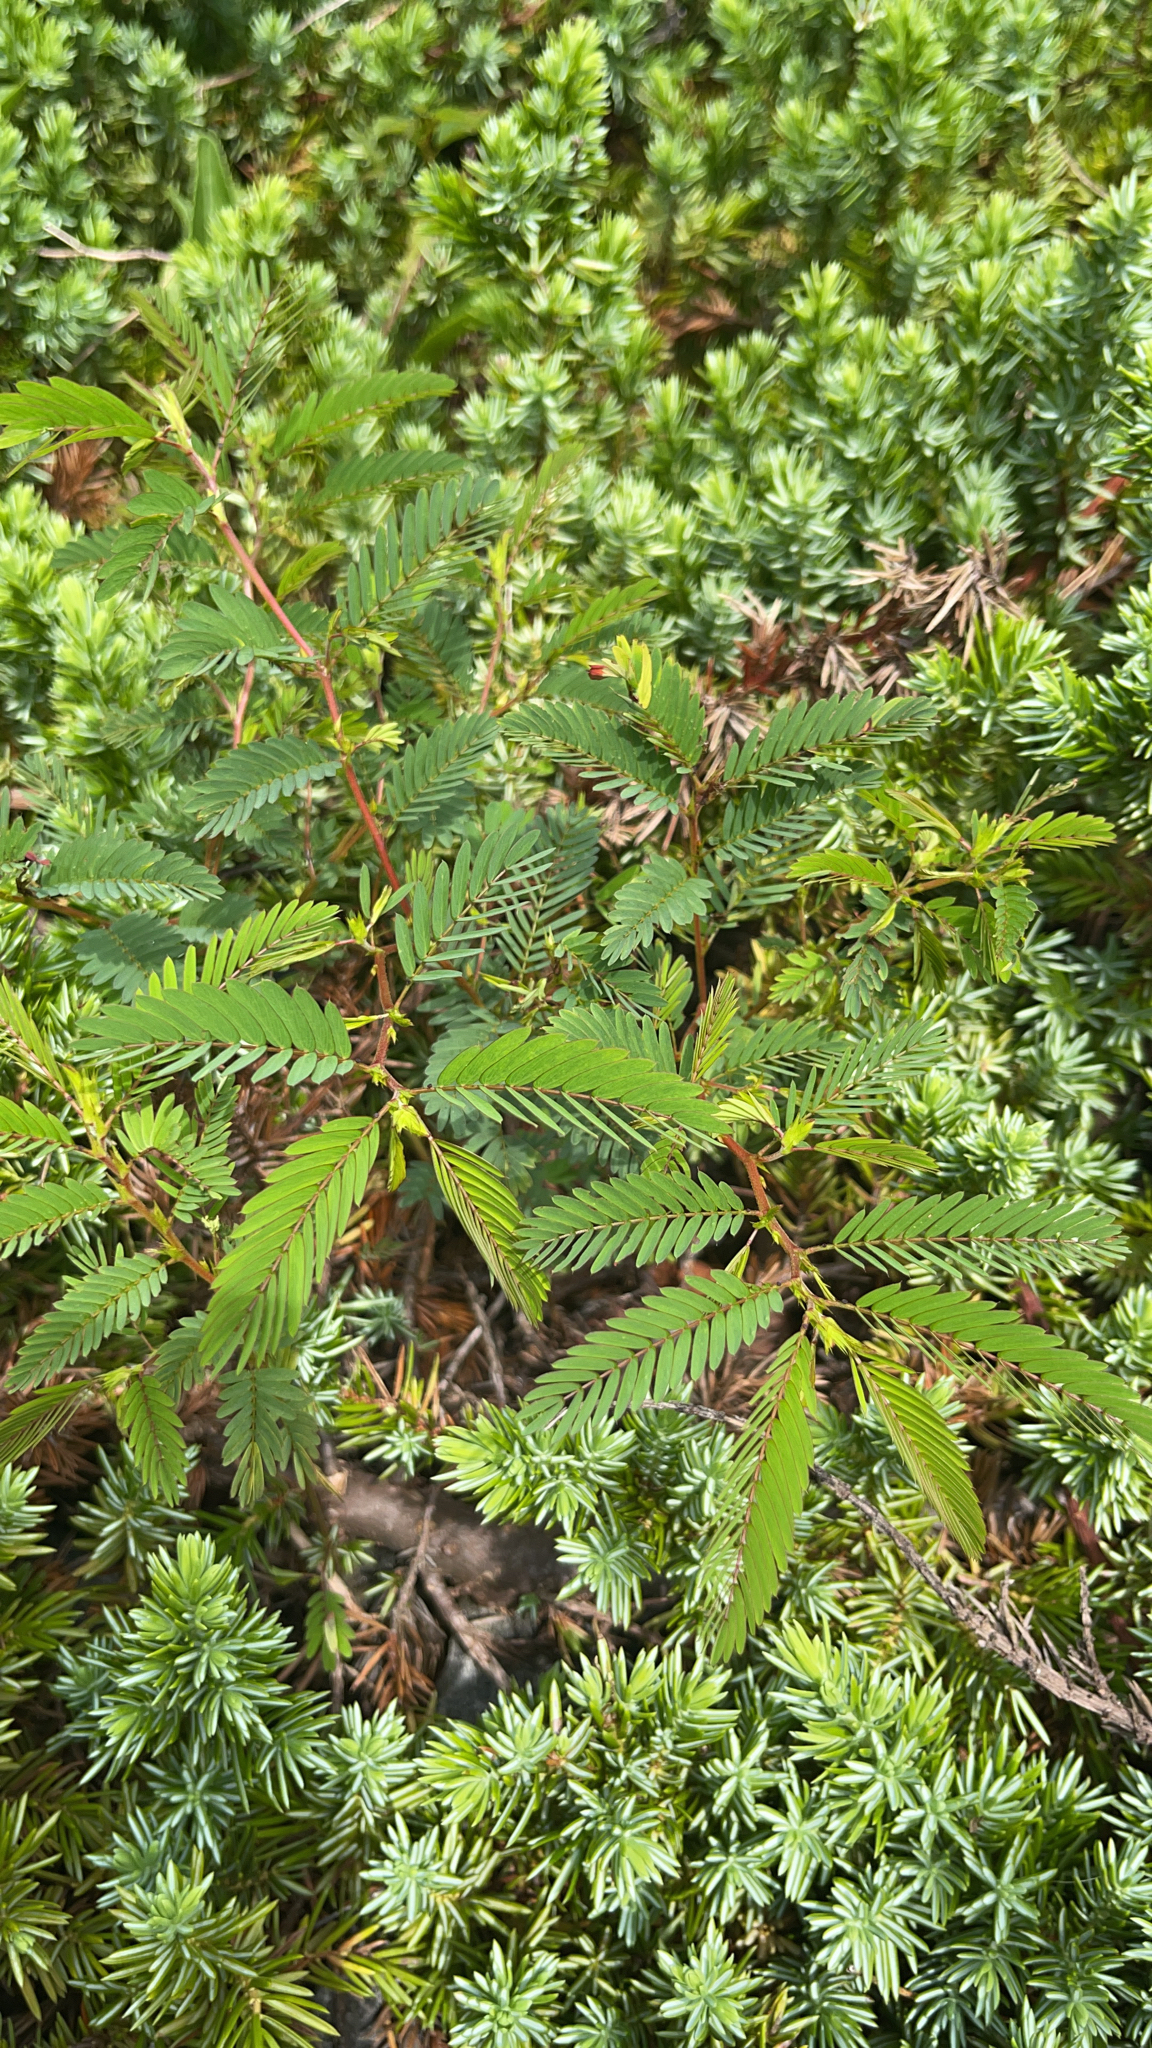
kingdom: Plantae
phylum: Tracheophyta
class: Magnoliopsida
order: Fabales
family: Fabaceae
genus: Chamaecrista
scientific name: Chamaecrista nictitans
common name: Sensitive cassia
